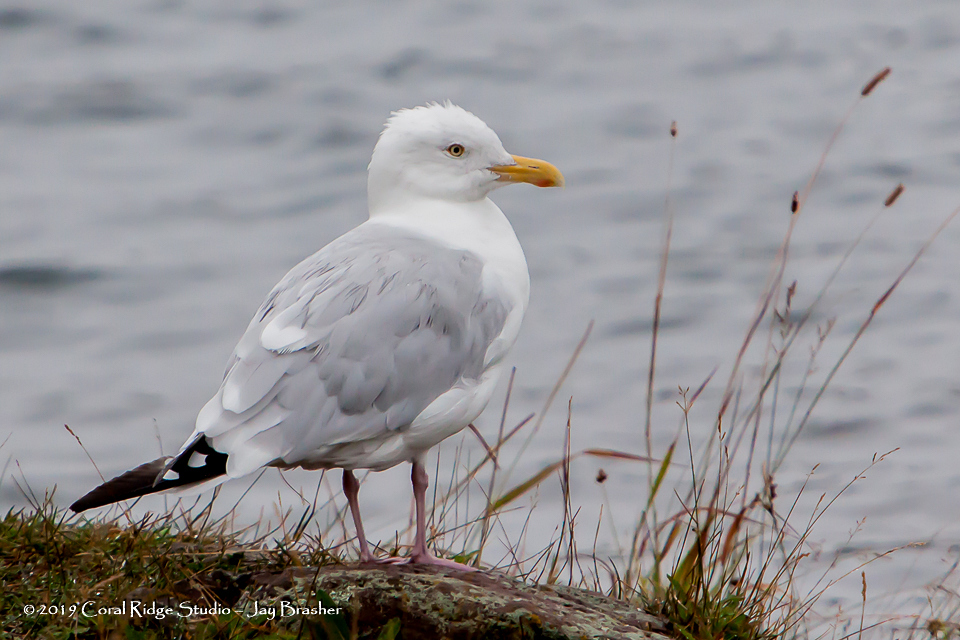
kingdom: Animalia
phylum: Chordata
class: Aves
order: Charadriiformes
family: Laridae
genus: Larus
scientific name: Larus argentatus
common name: Herring gull
